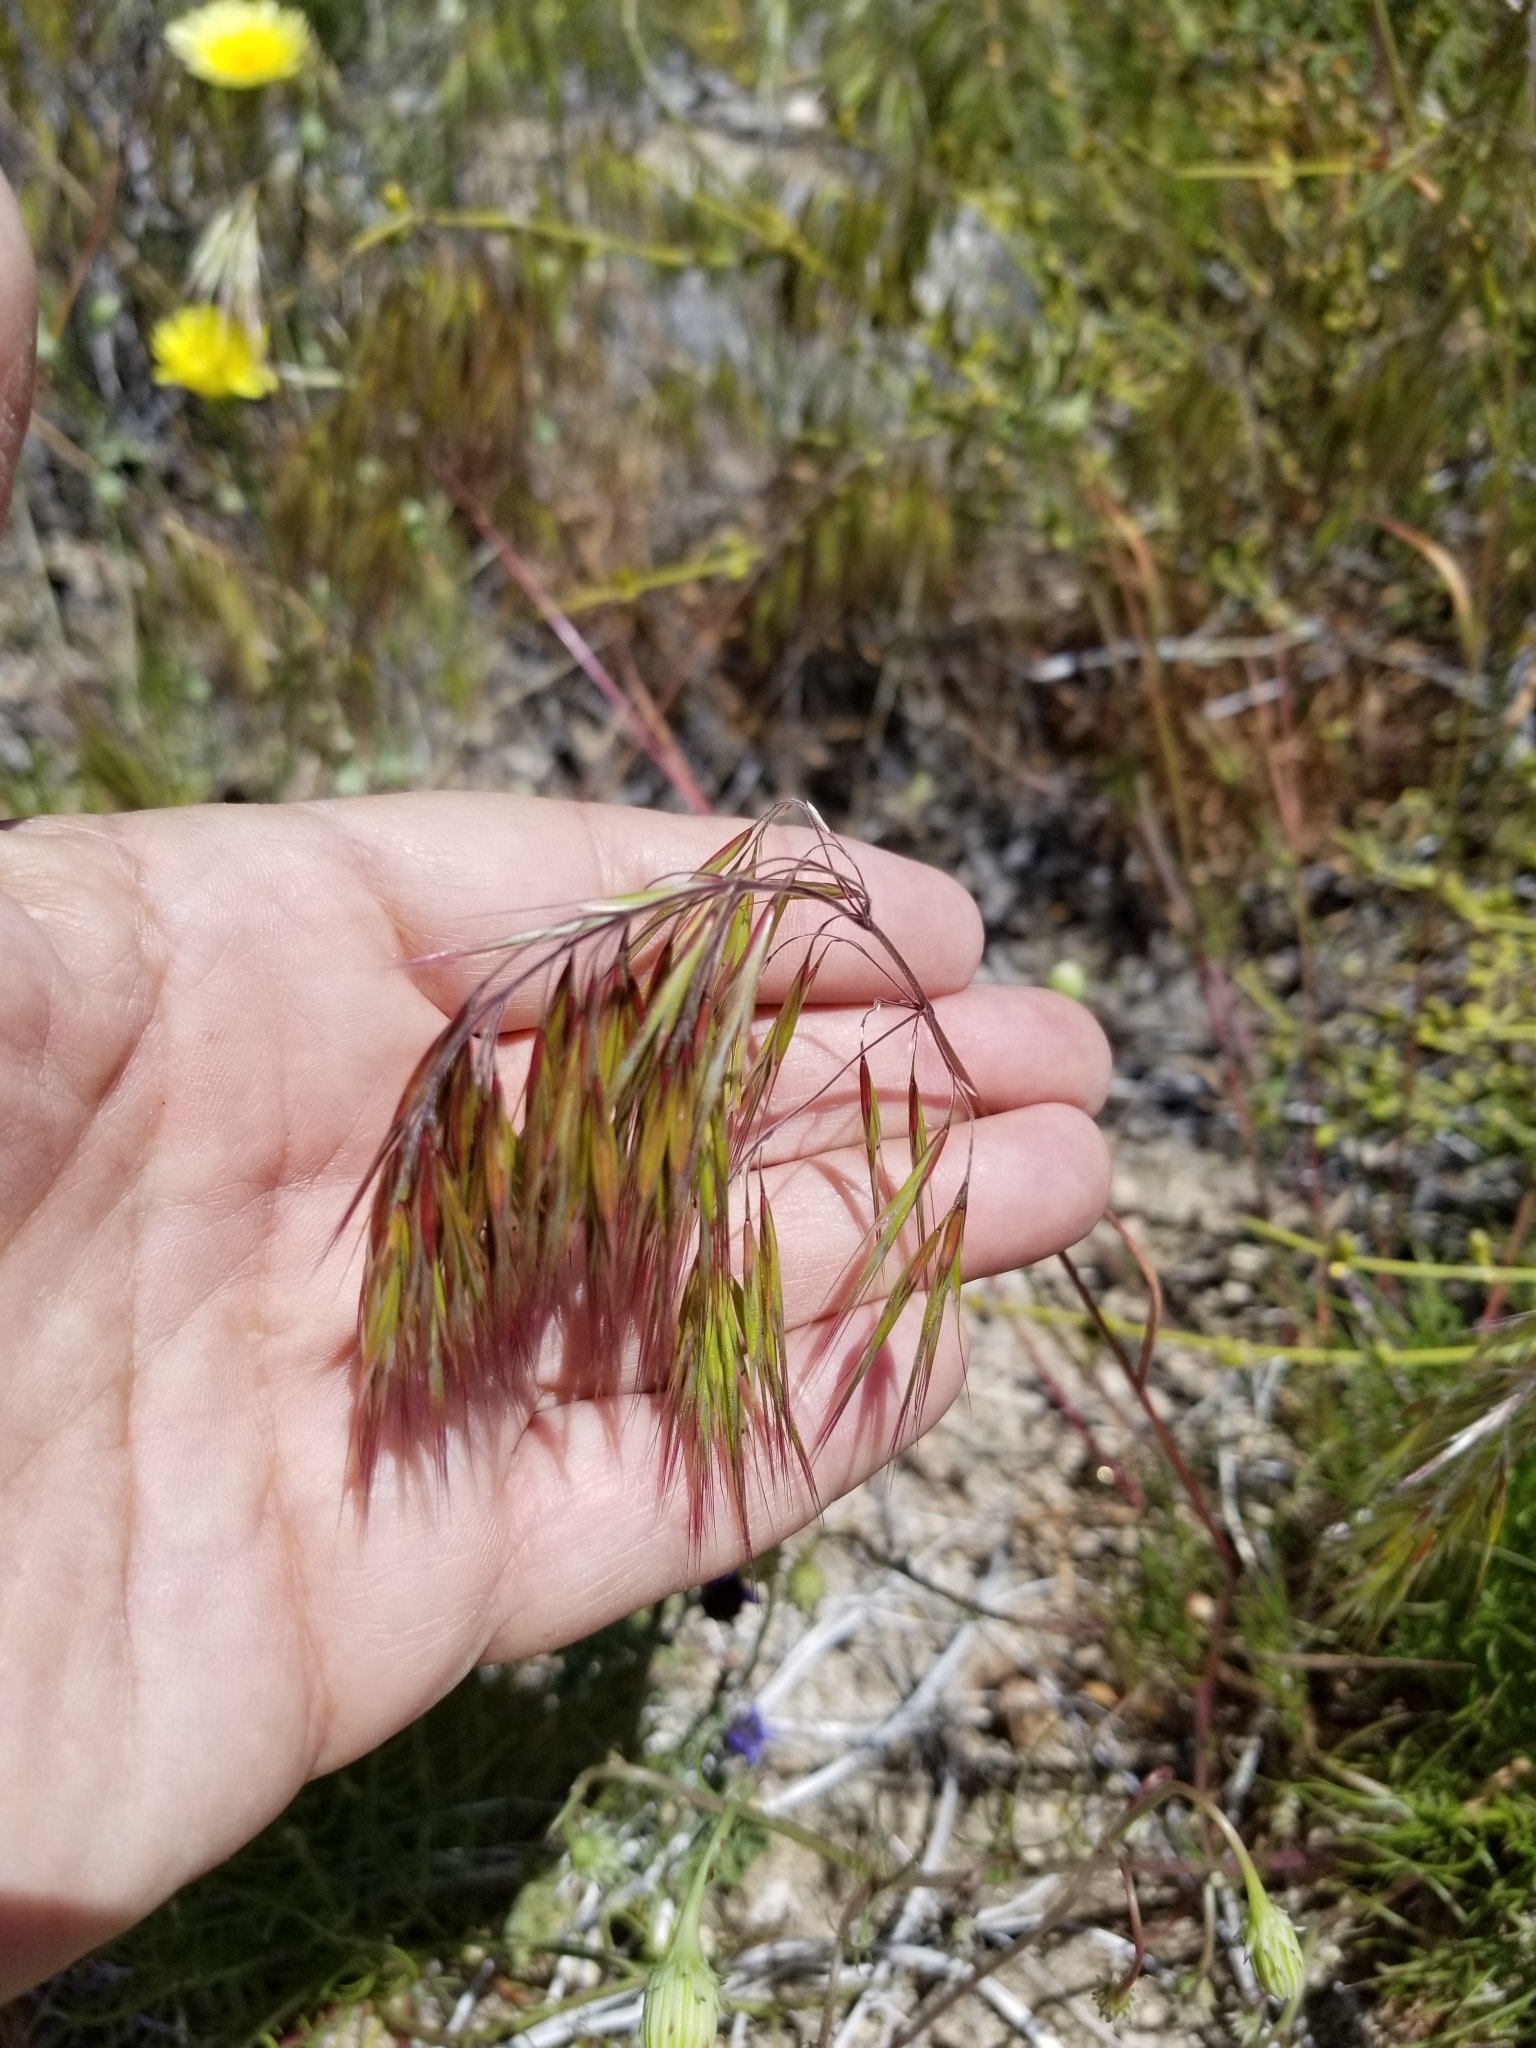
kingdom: Plantae
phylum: Tracheophyta
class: Liliopsida
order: Poales
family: Poaceae
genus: Bromus
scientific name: Bromus tectorum
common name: Cheatgrass
